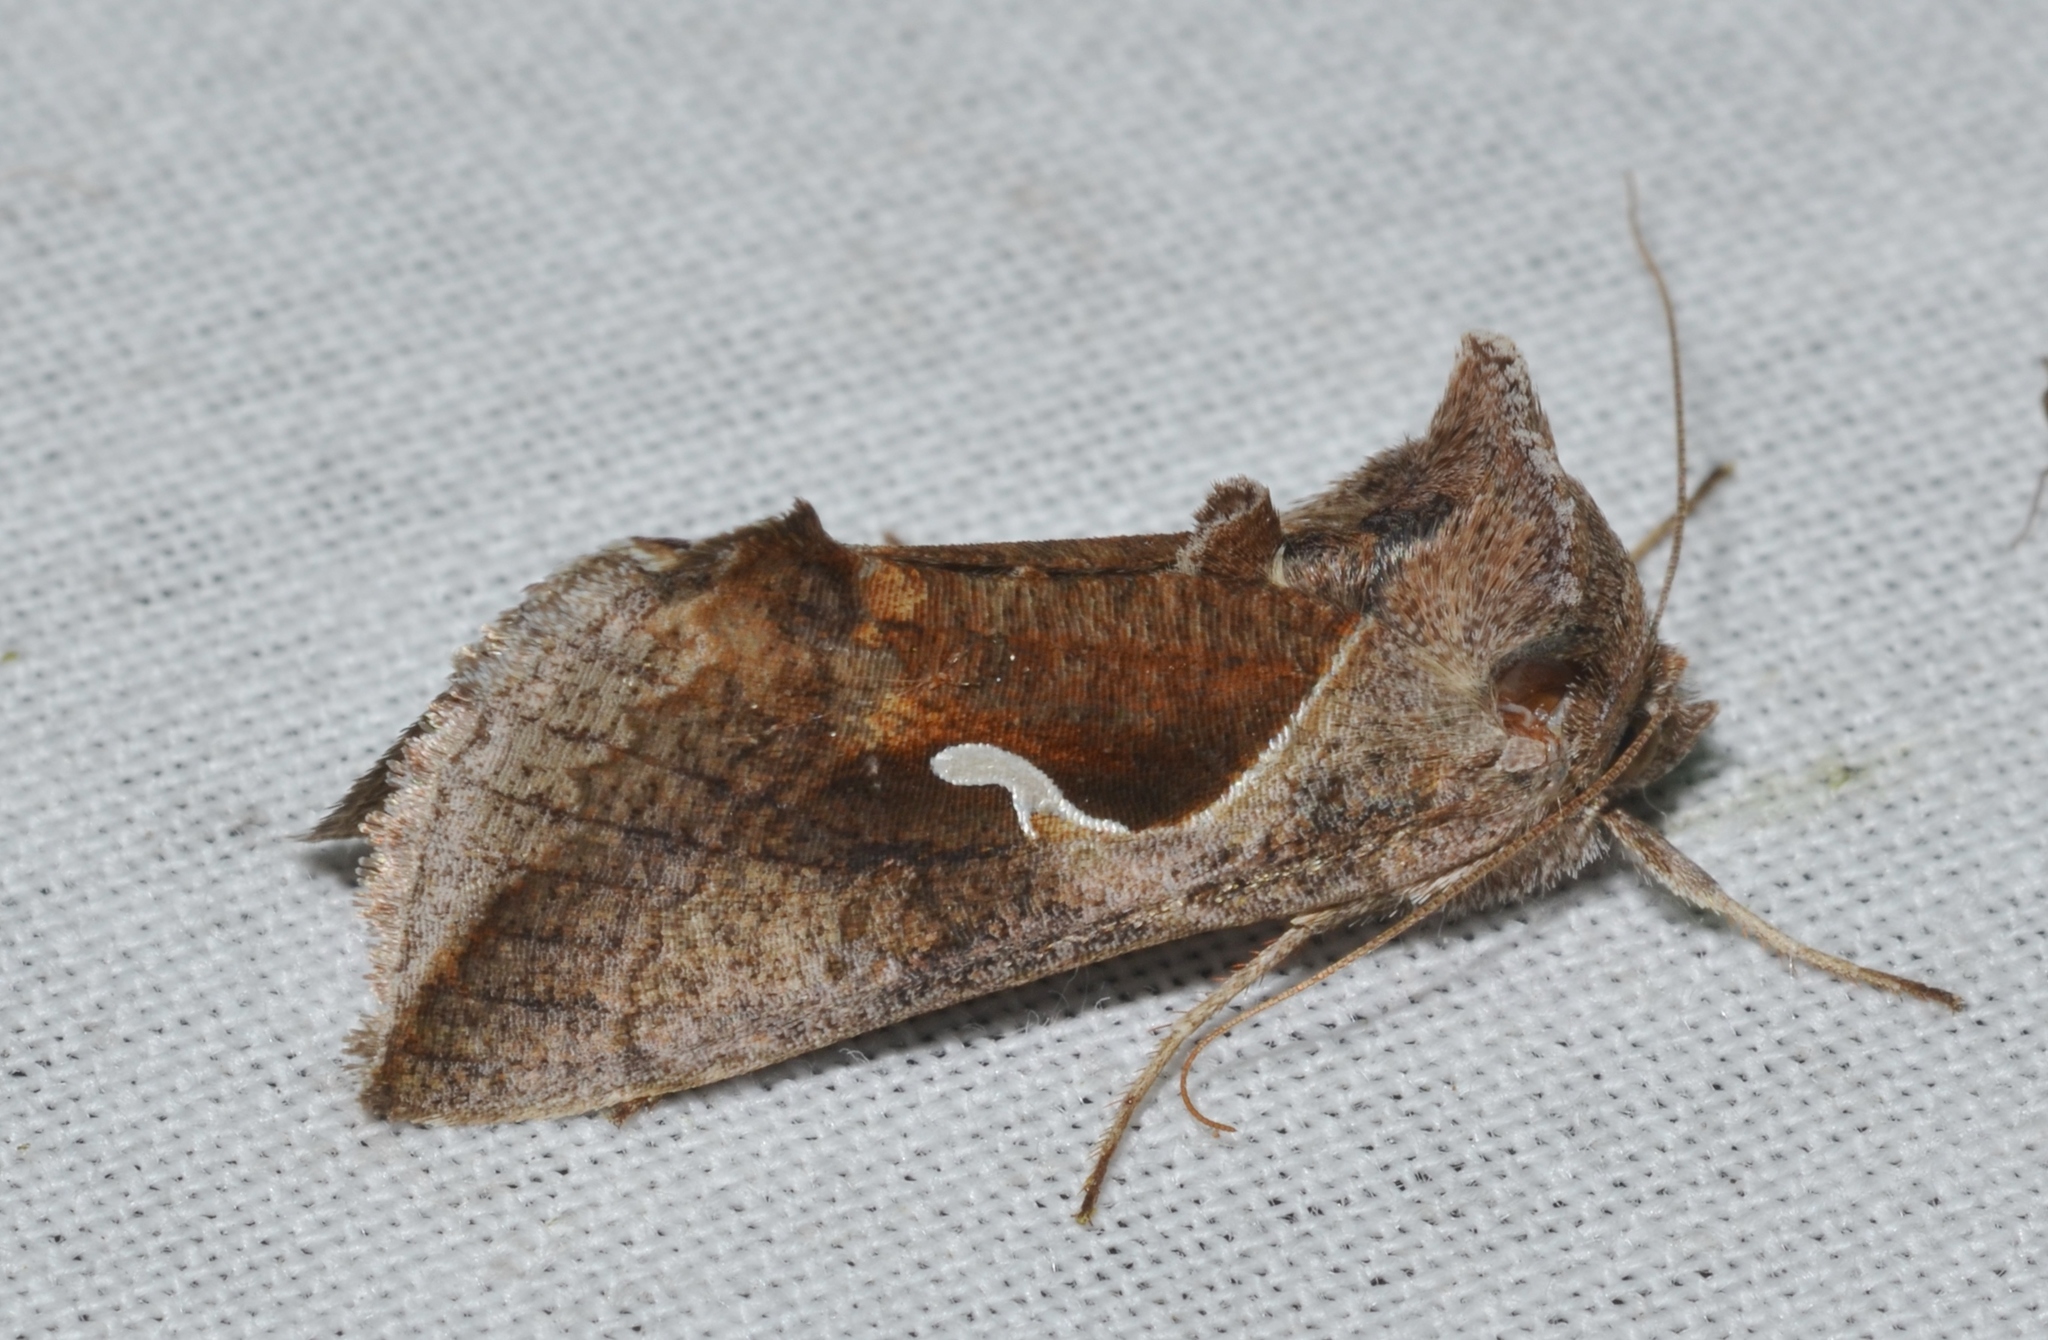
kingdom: Animalia
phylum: Arthropoda
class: Insecta
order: Lepidoptera
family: Noctuidae
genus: Anagrapha
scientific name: Anagrapha falcifera
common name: Celery looper
